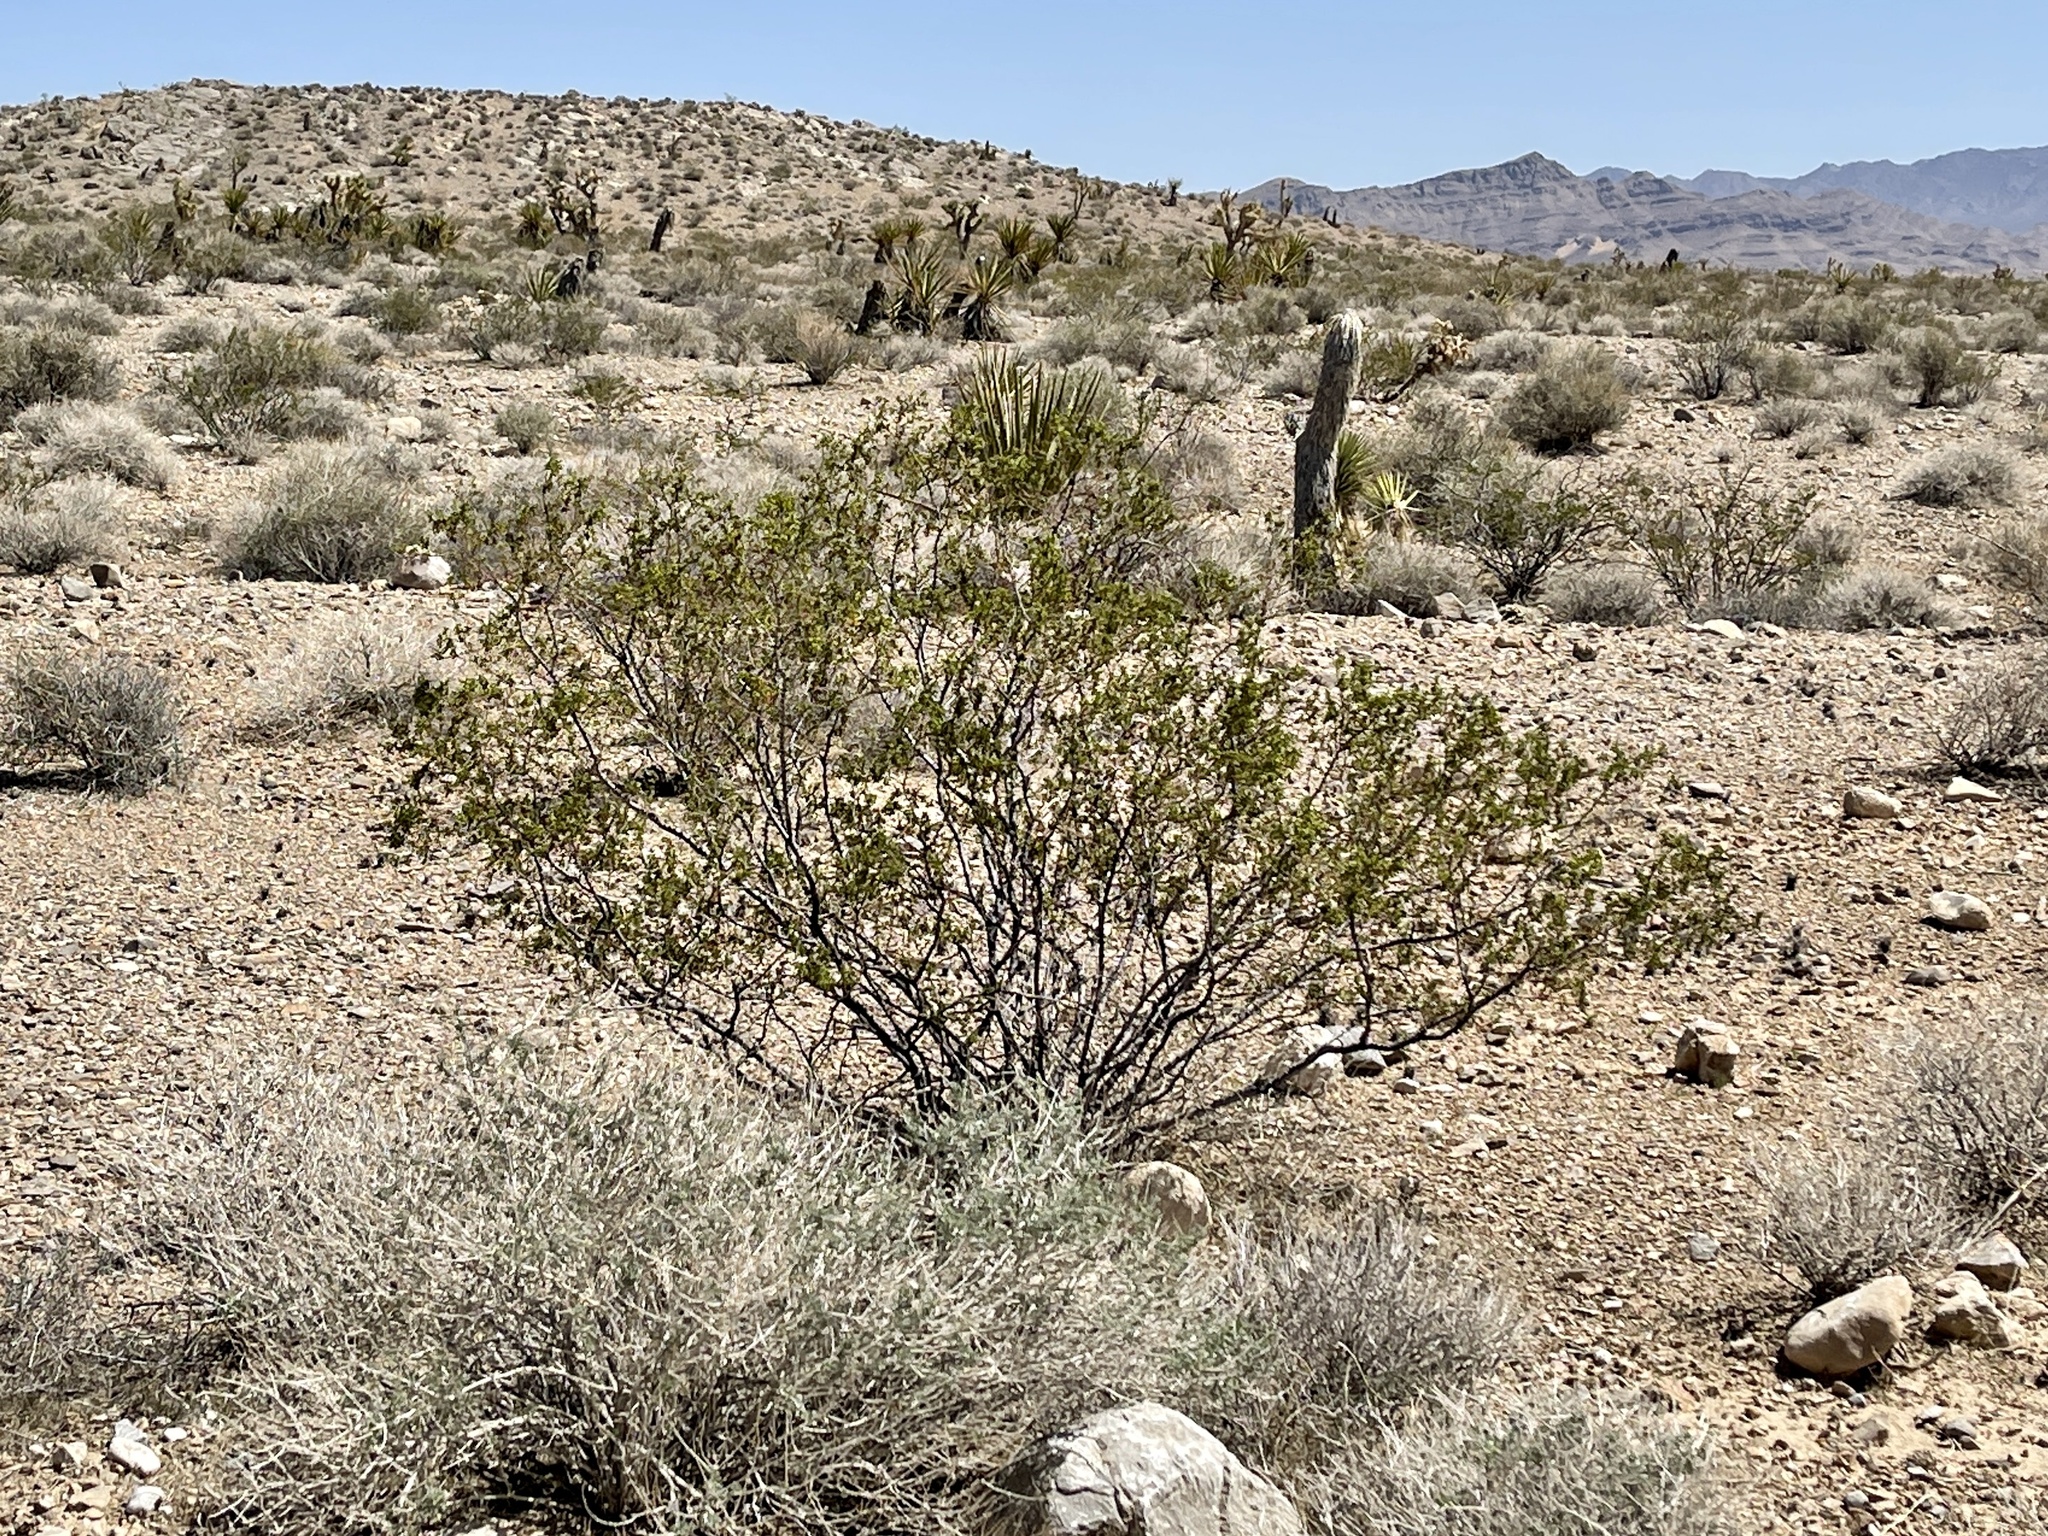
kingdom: Plantae
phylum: Tracheophyta
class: Magnoliopsida
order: Zygophyllales
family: Zygophyllaceae
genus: Larrea
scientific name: Larrea tridentata
